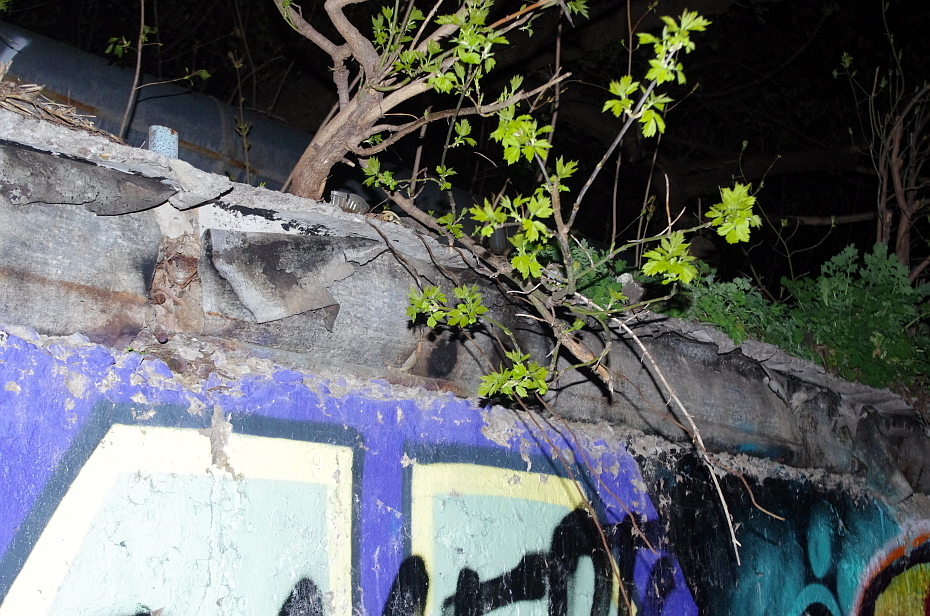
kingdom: Plantae
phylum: Tracheophyta
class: Magnoliopsida
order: Sapindales
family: Sapindaceae
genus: Acer
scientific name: Acer negundo
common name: Ashleaf maple
